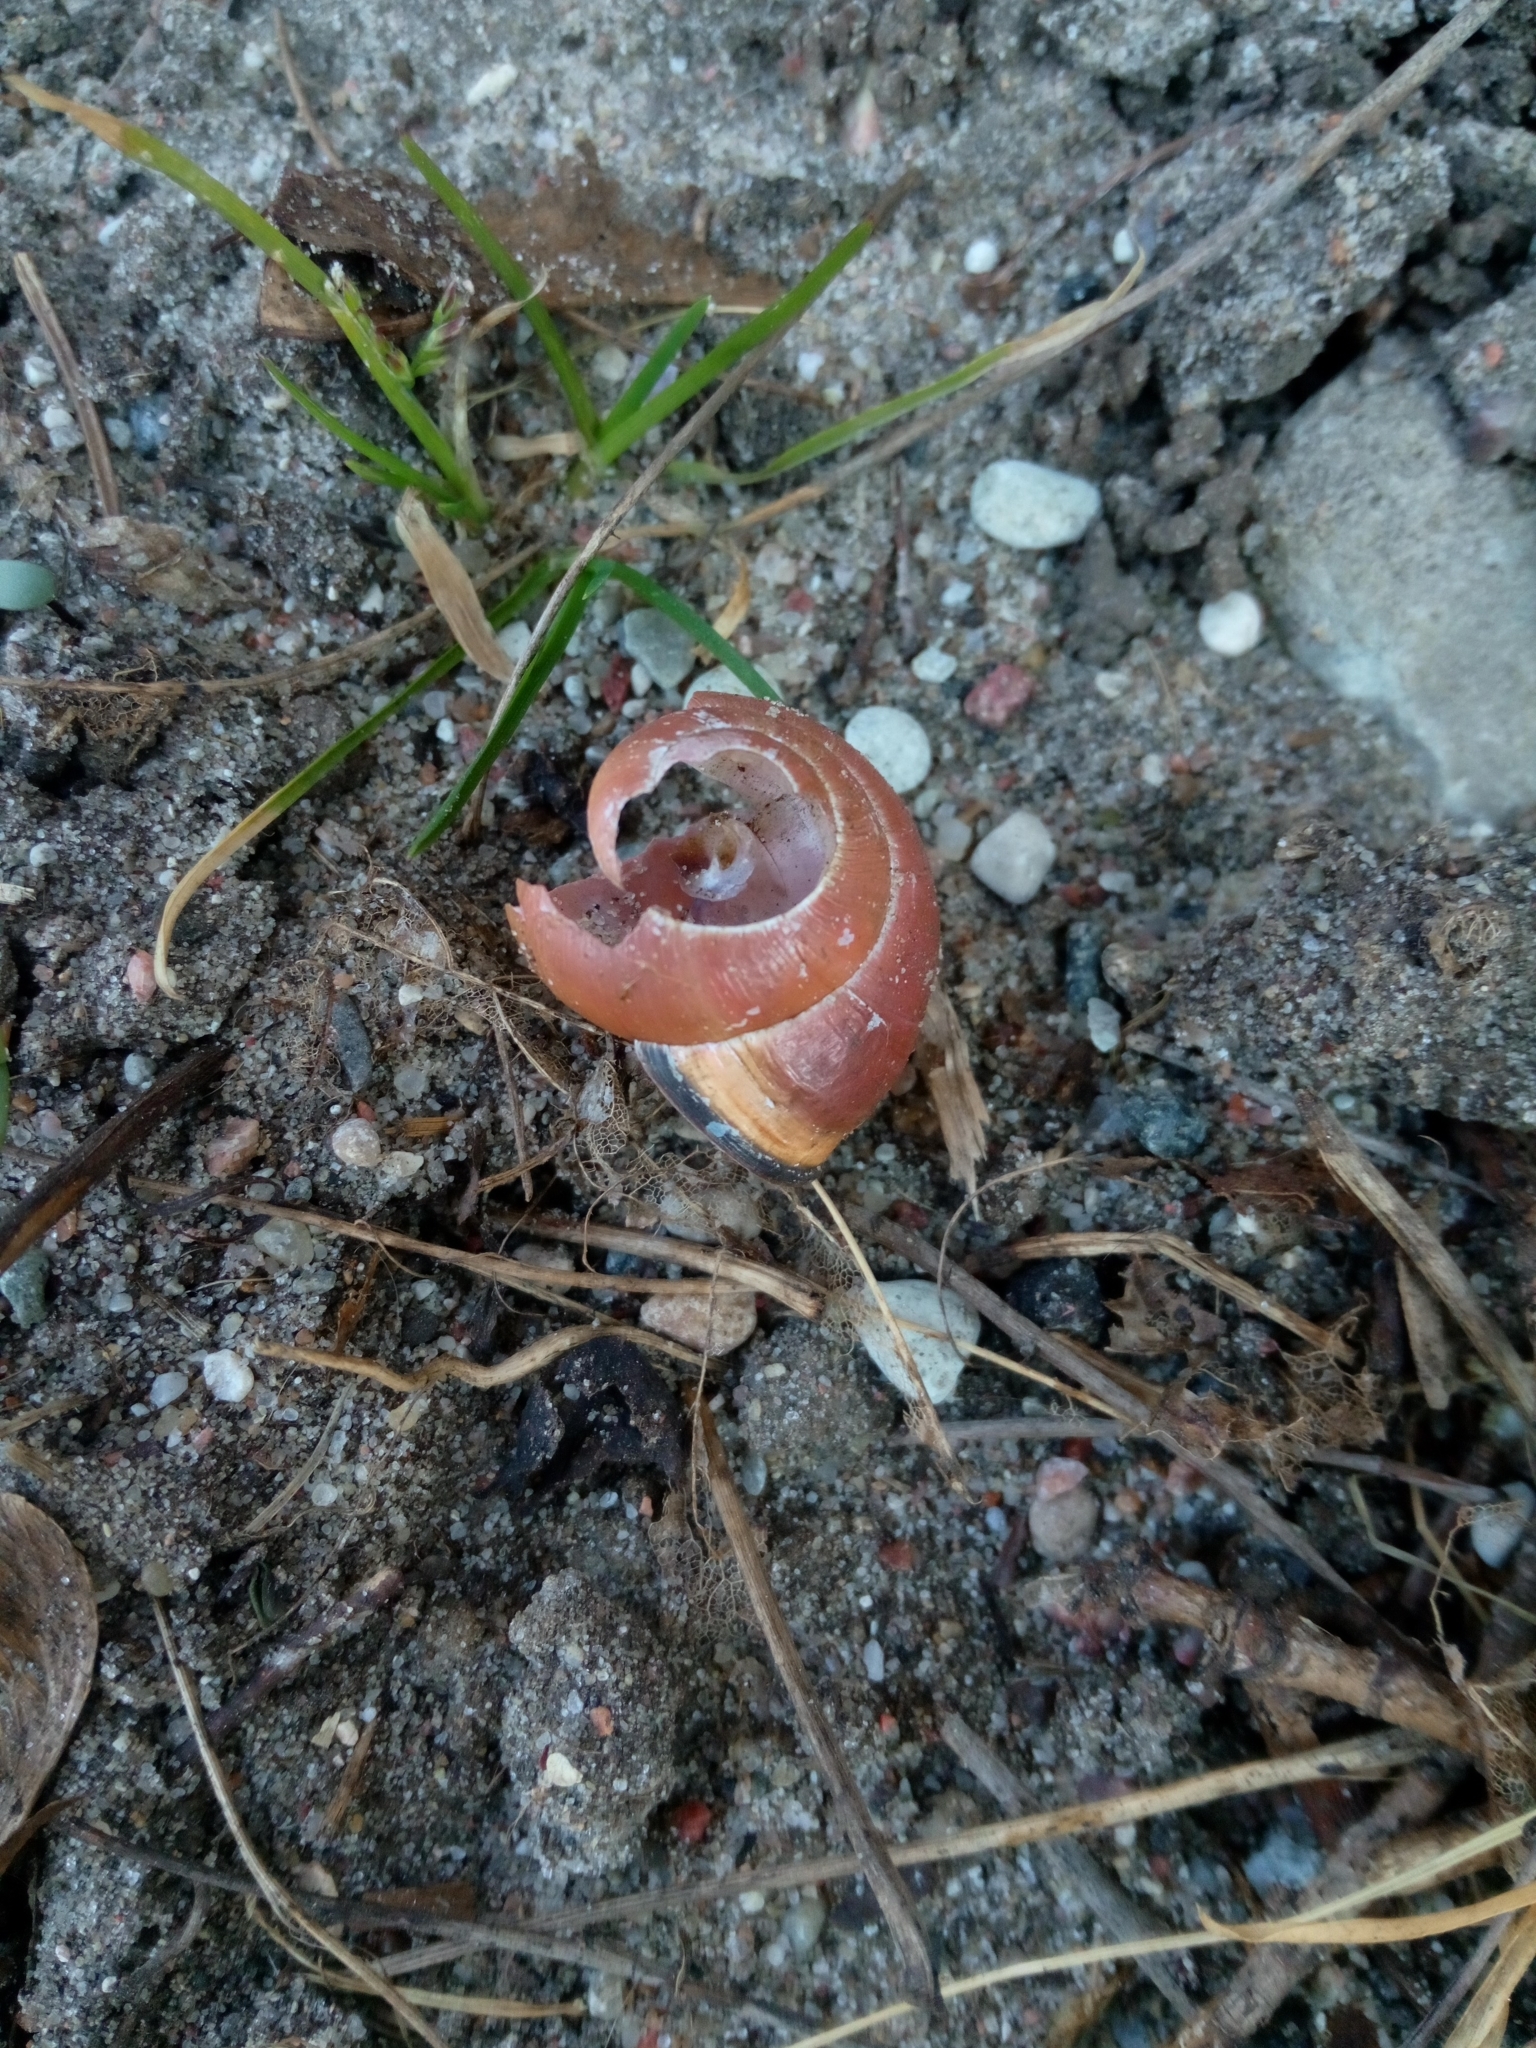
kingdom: Animalia
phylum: Mollusca
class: Gastropoda
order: Stylommatophora
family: Helicidae
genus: Cepaea
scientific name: Cepaea nemoralis
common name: Grovesnail
